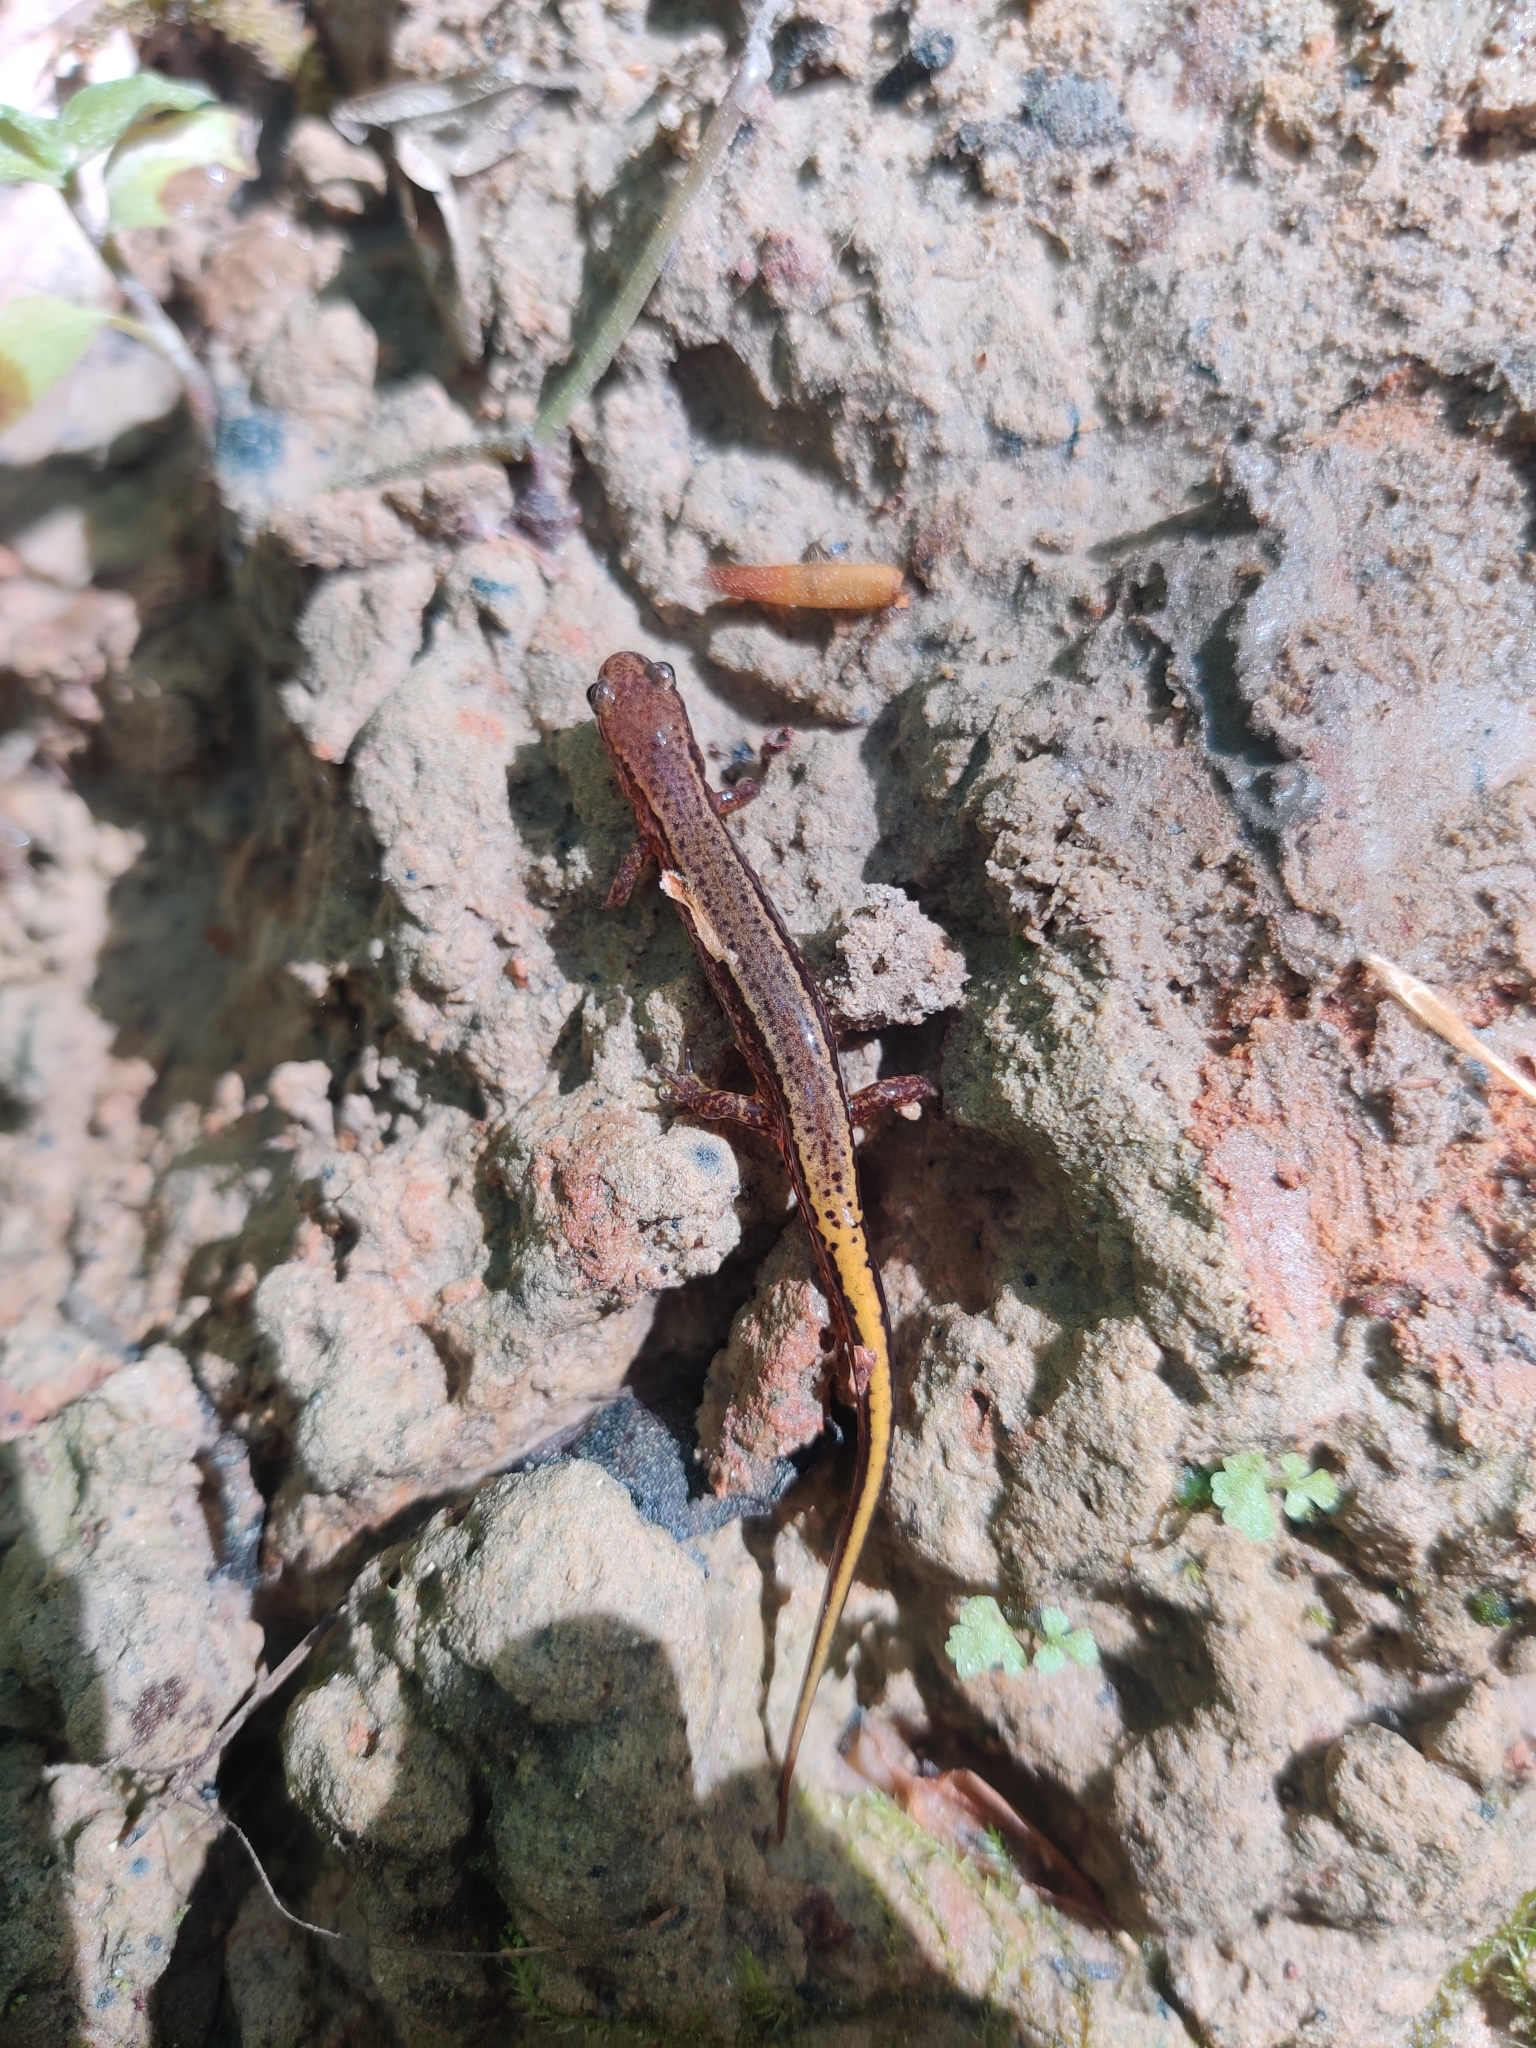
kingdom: Animalia
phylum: Chordata
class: Amphibia
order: Caudata
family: Plethodontidae
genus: Eurycea
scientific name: Eurycea cirrigera
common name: Southern two-lined salamander
